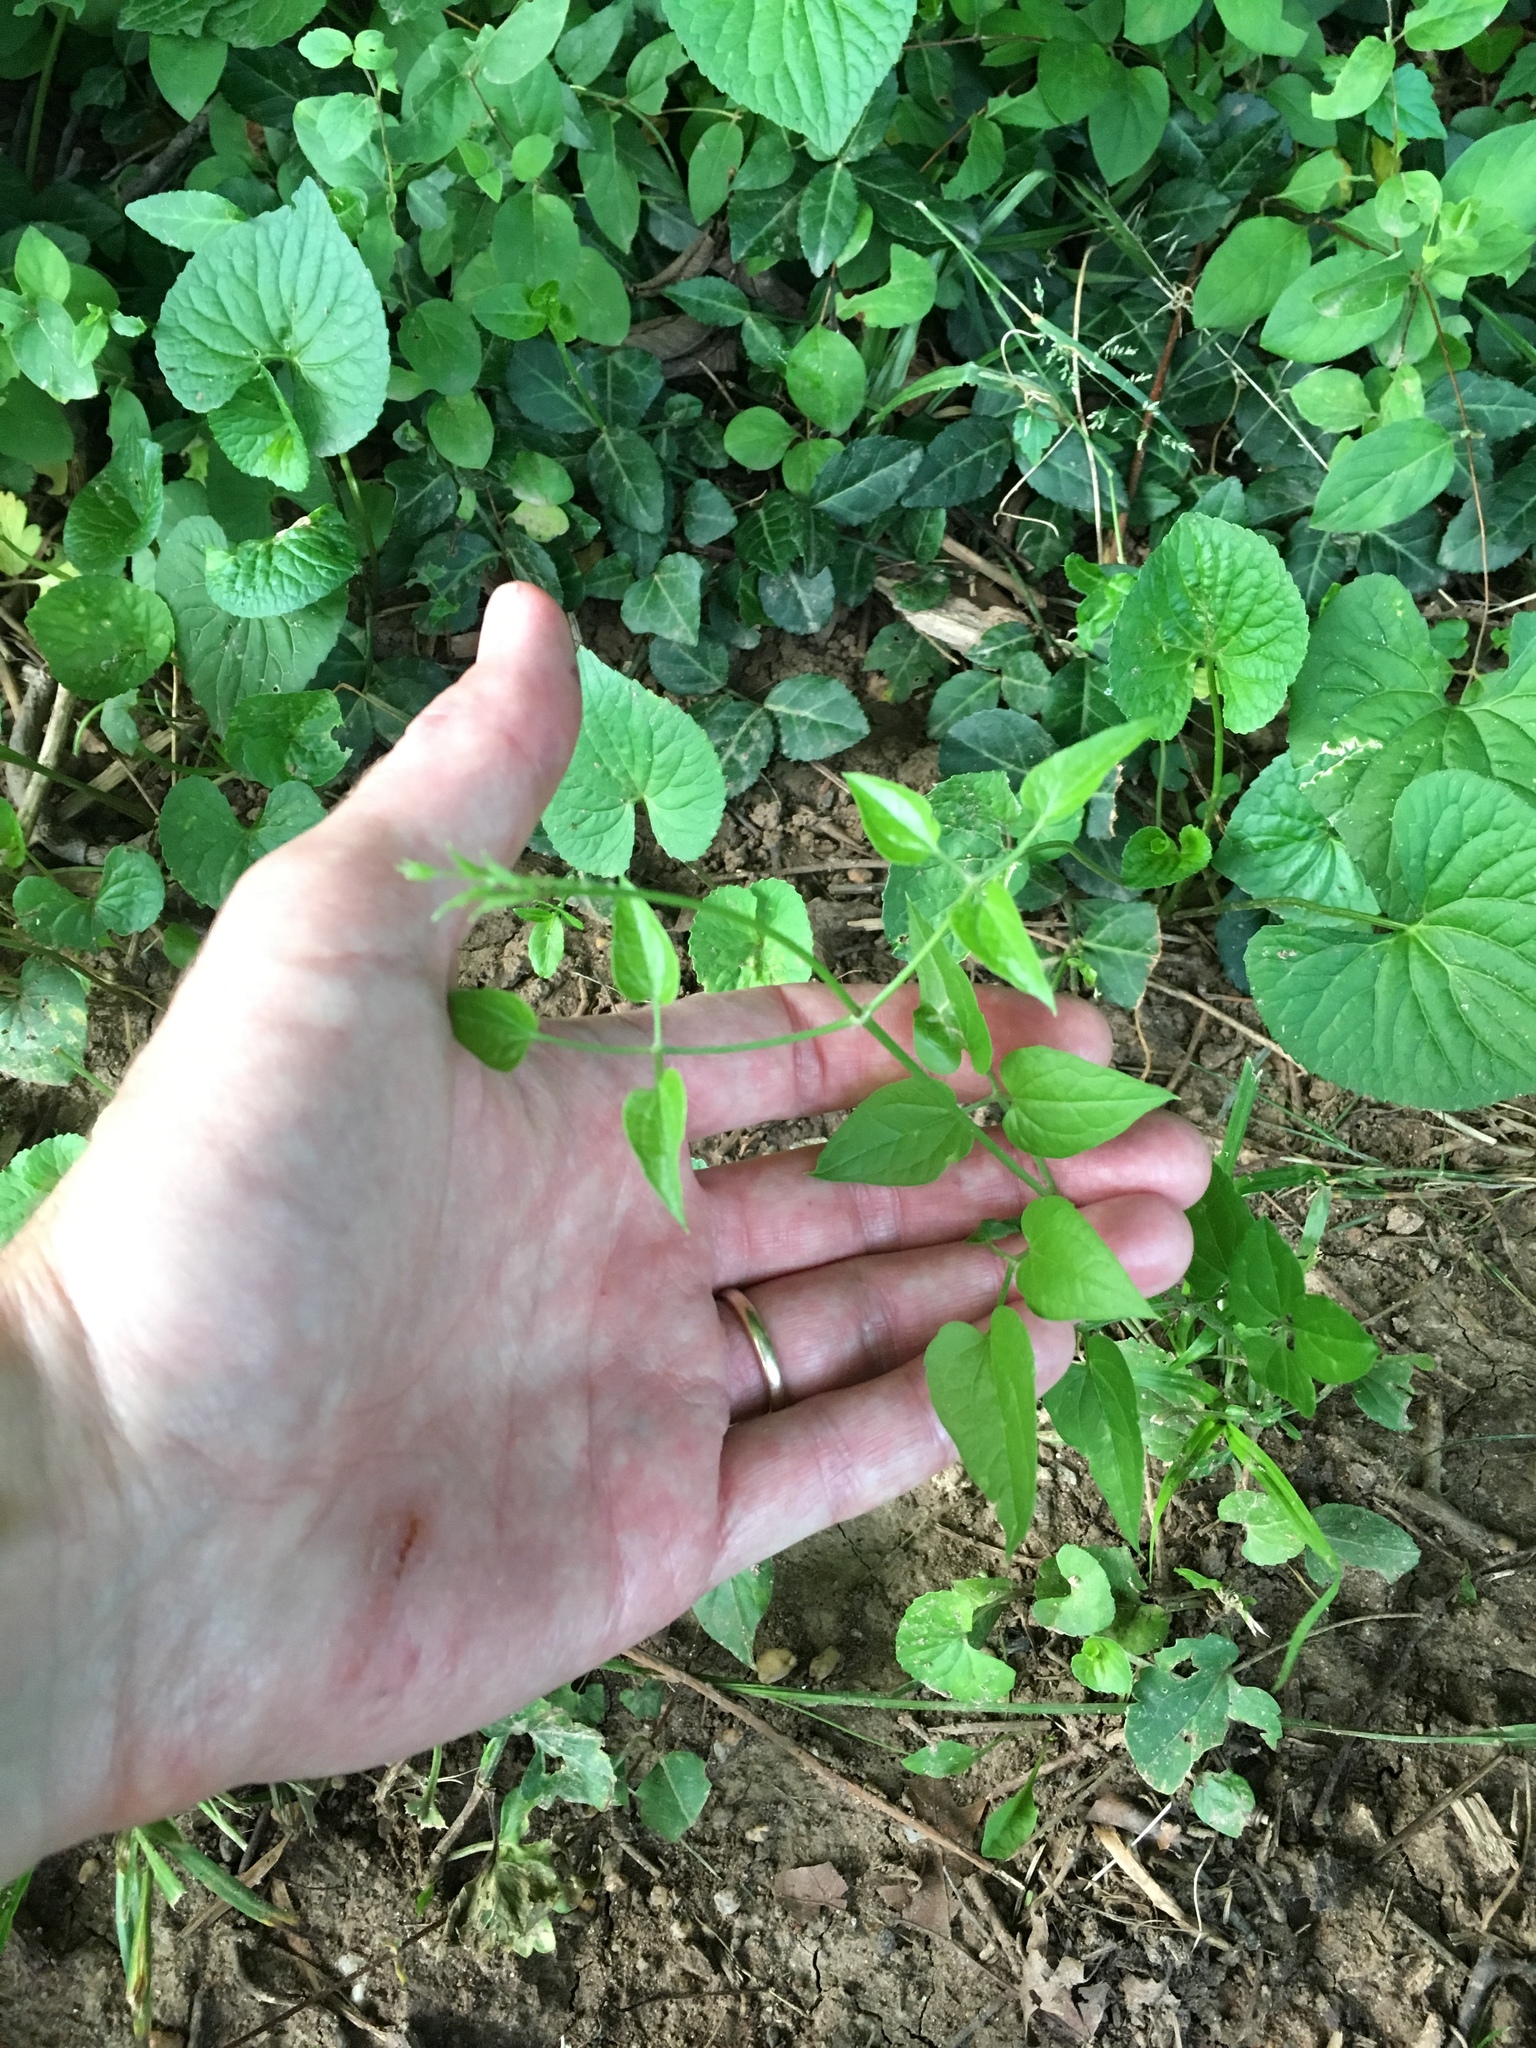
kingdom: Plantae
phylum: Tracheophyta
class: Magnoliopsida
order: Ranunculales
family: Ranunculaceae
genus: Clematis
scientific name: Clematis terniflora
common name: Sweet autumn clematis
